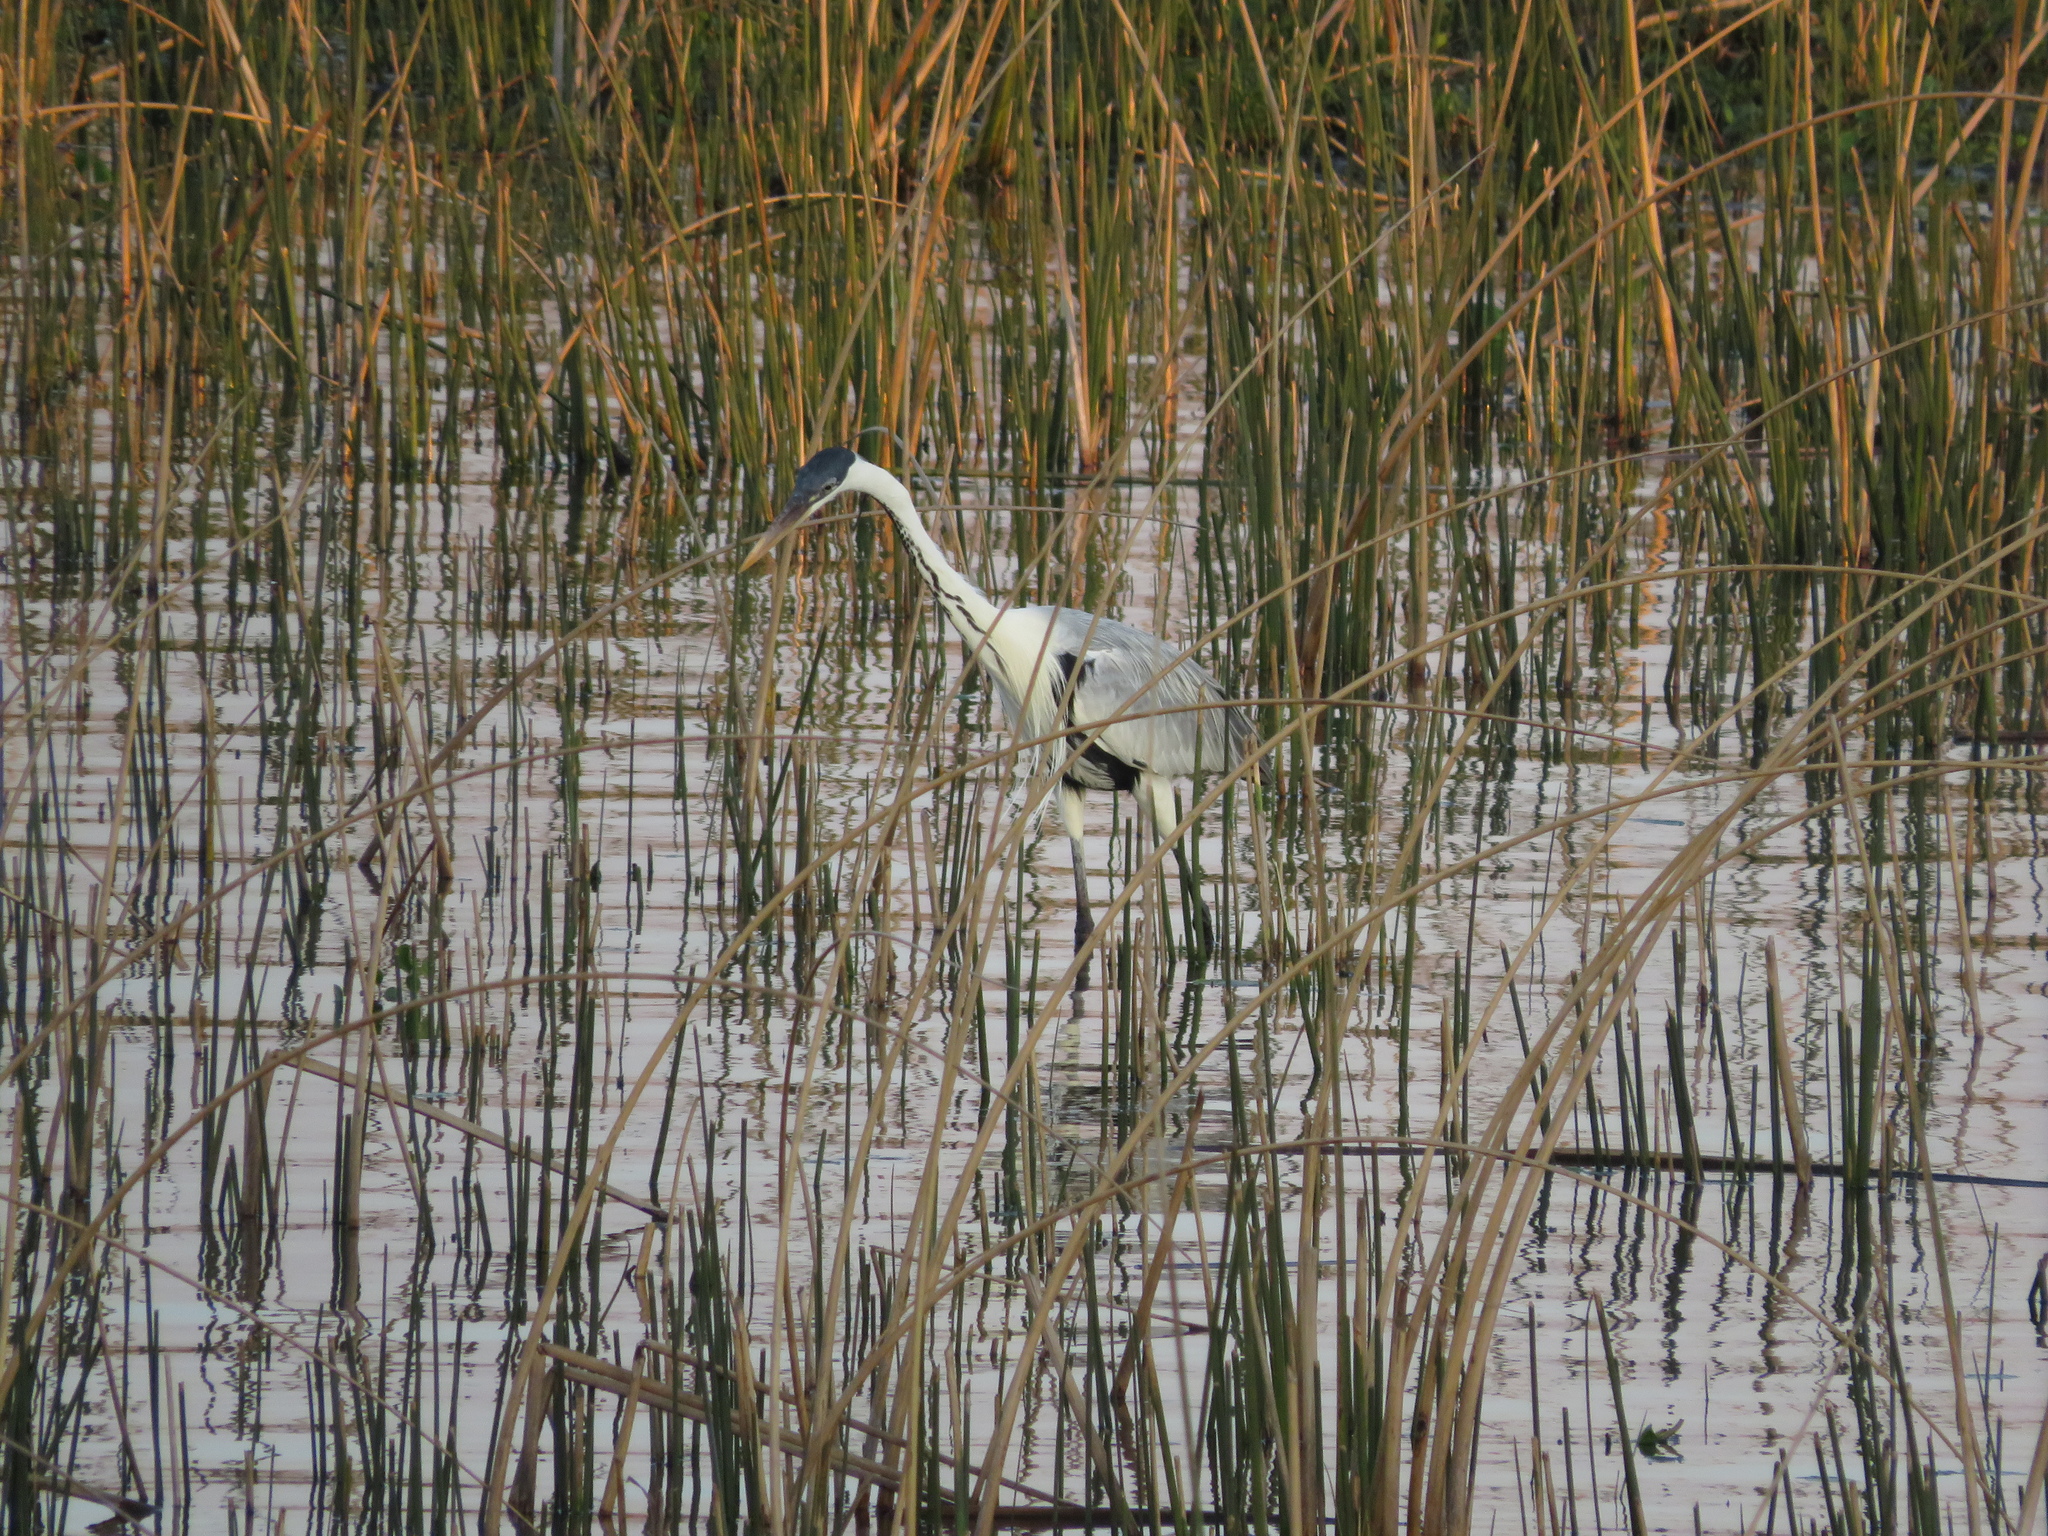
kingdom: Animalia
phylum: Chordata
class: Aves
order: Pelecaniformes
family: Ardeidae
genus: Ardea
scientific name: Ardea cocoi
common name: Cocoi heron
